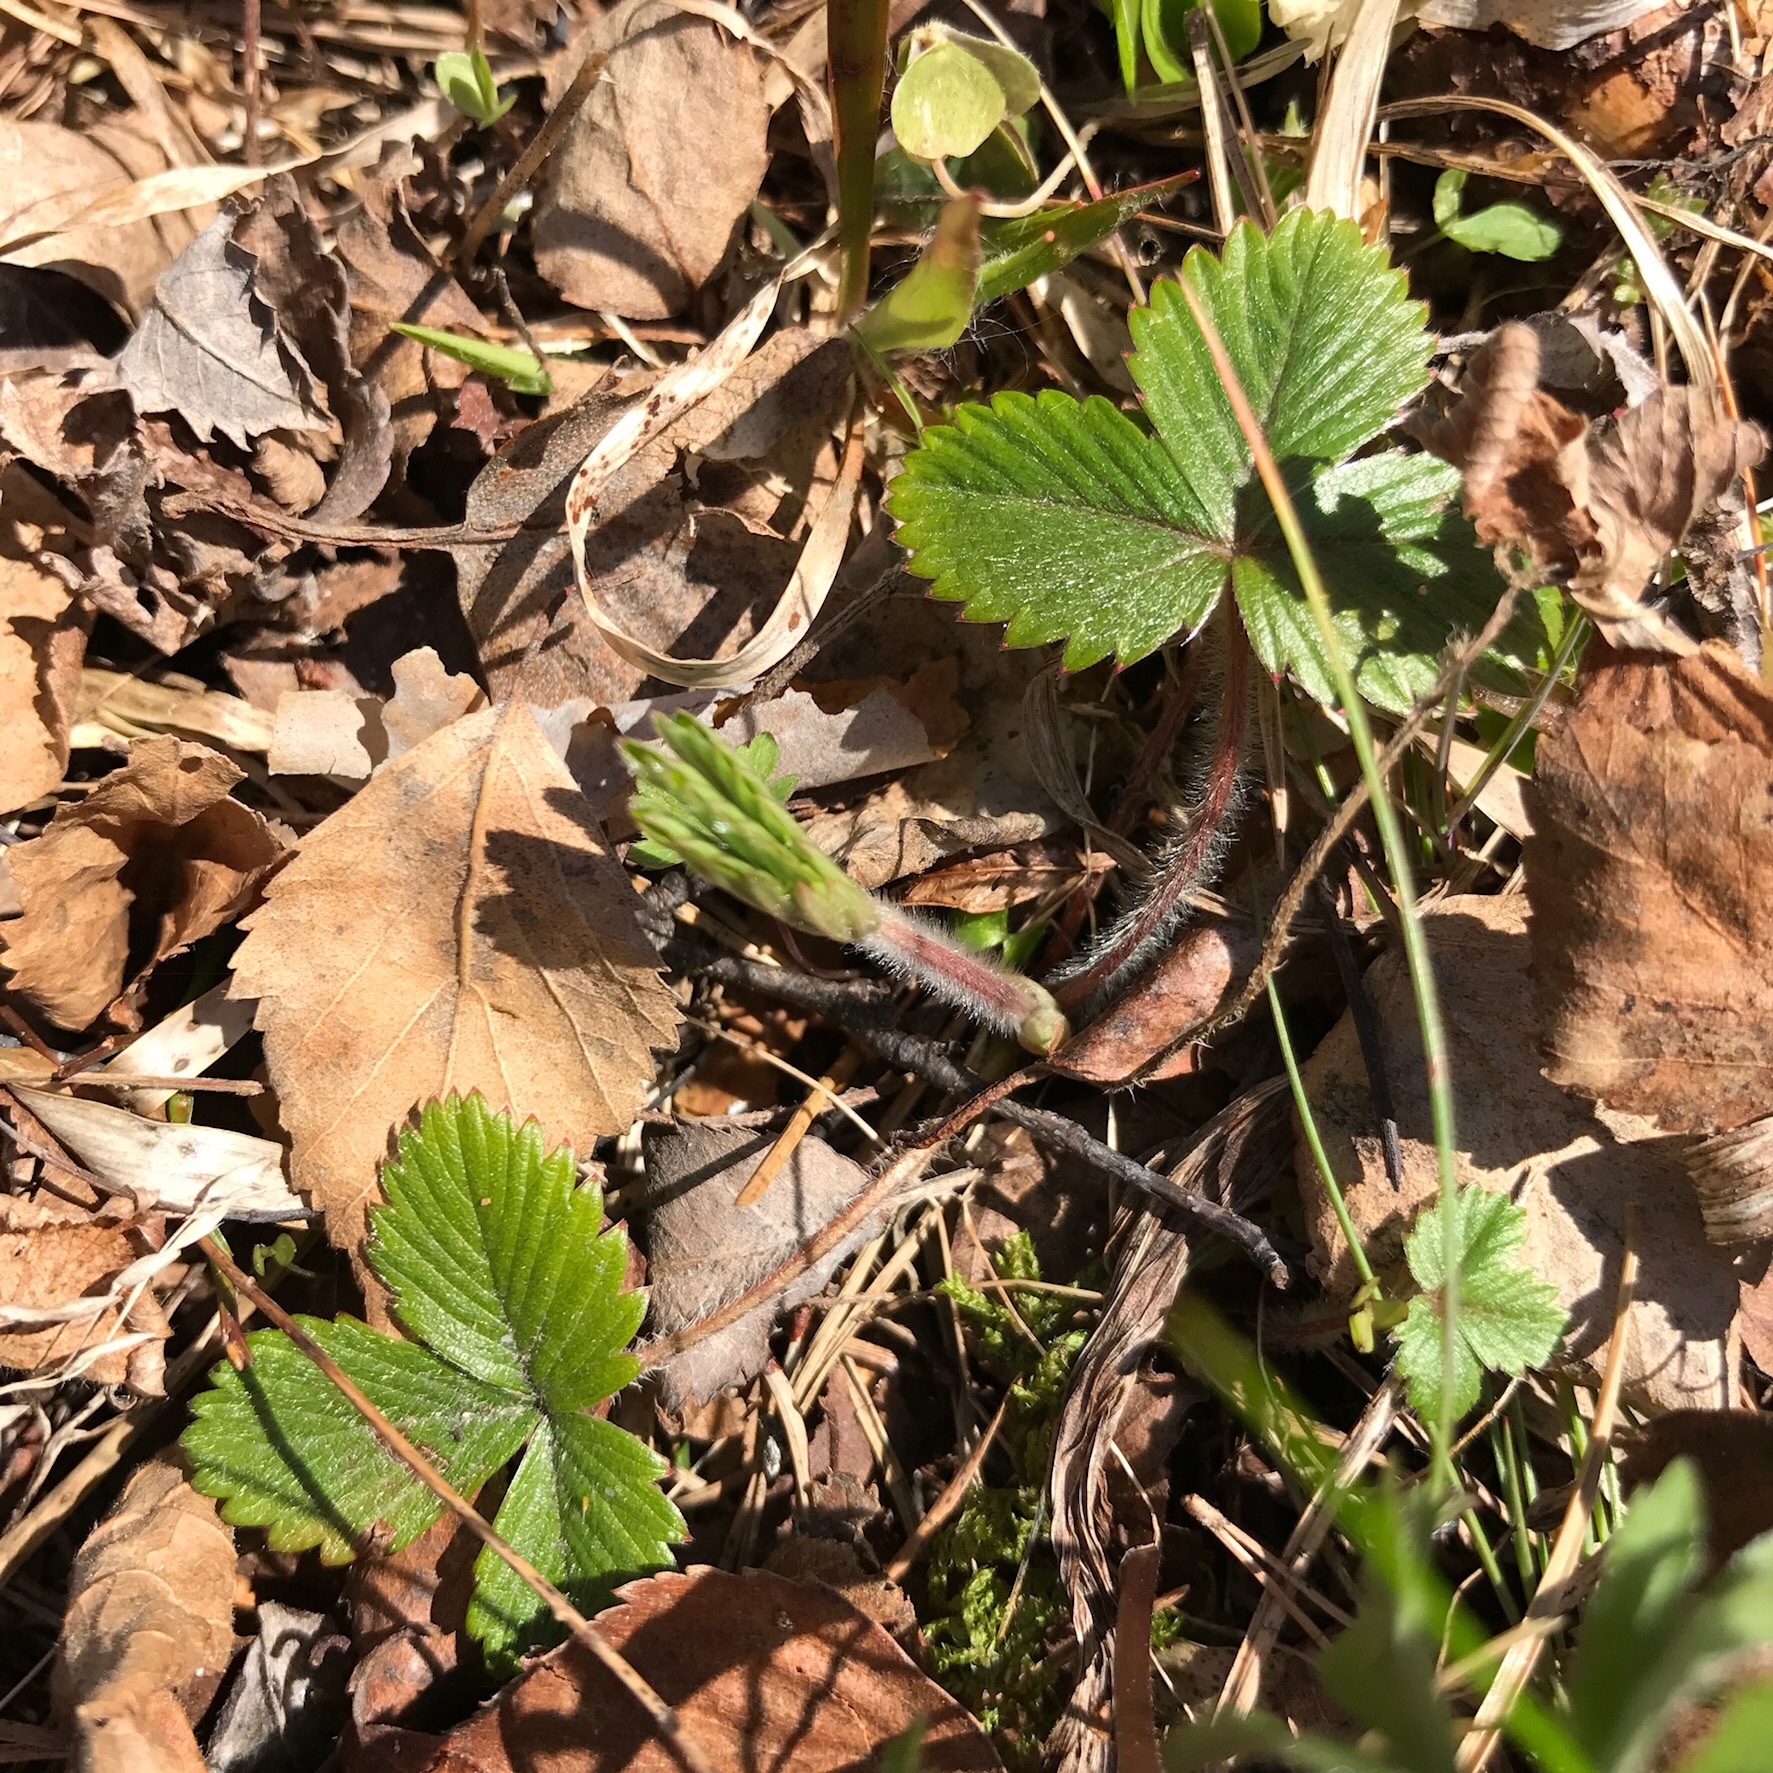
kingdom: Plantae
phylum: Tracheophyta
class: Magnoliopsida
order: Rosales
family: Rosaceae
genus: Fragaria
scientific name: Fragaria vesca
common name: Wild strawberry
